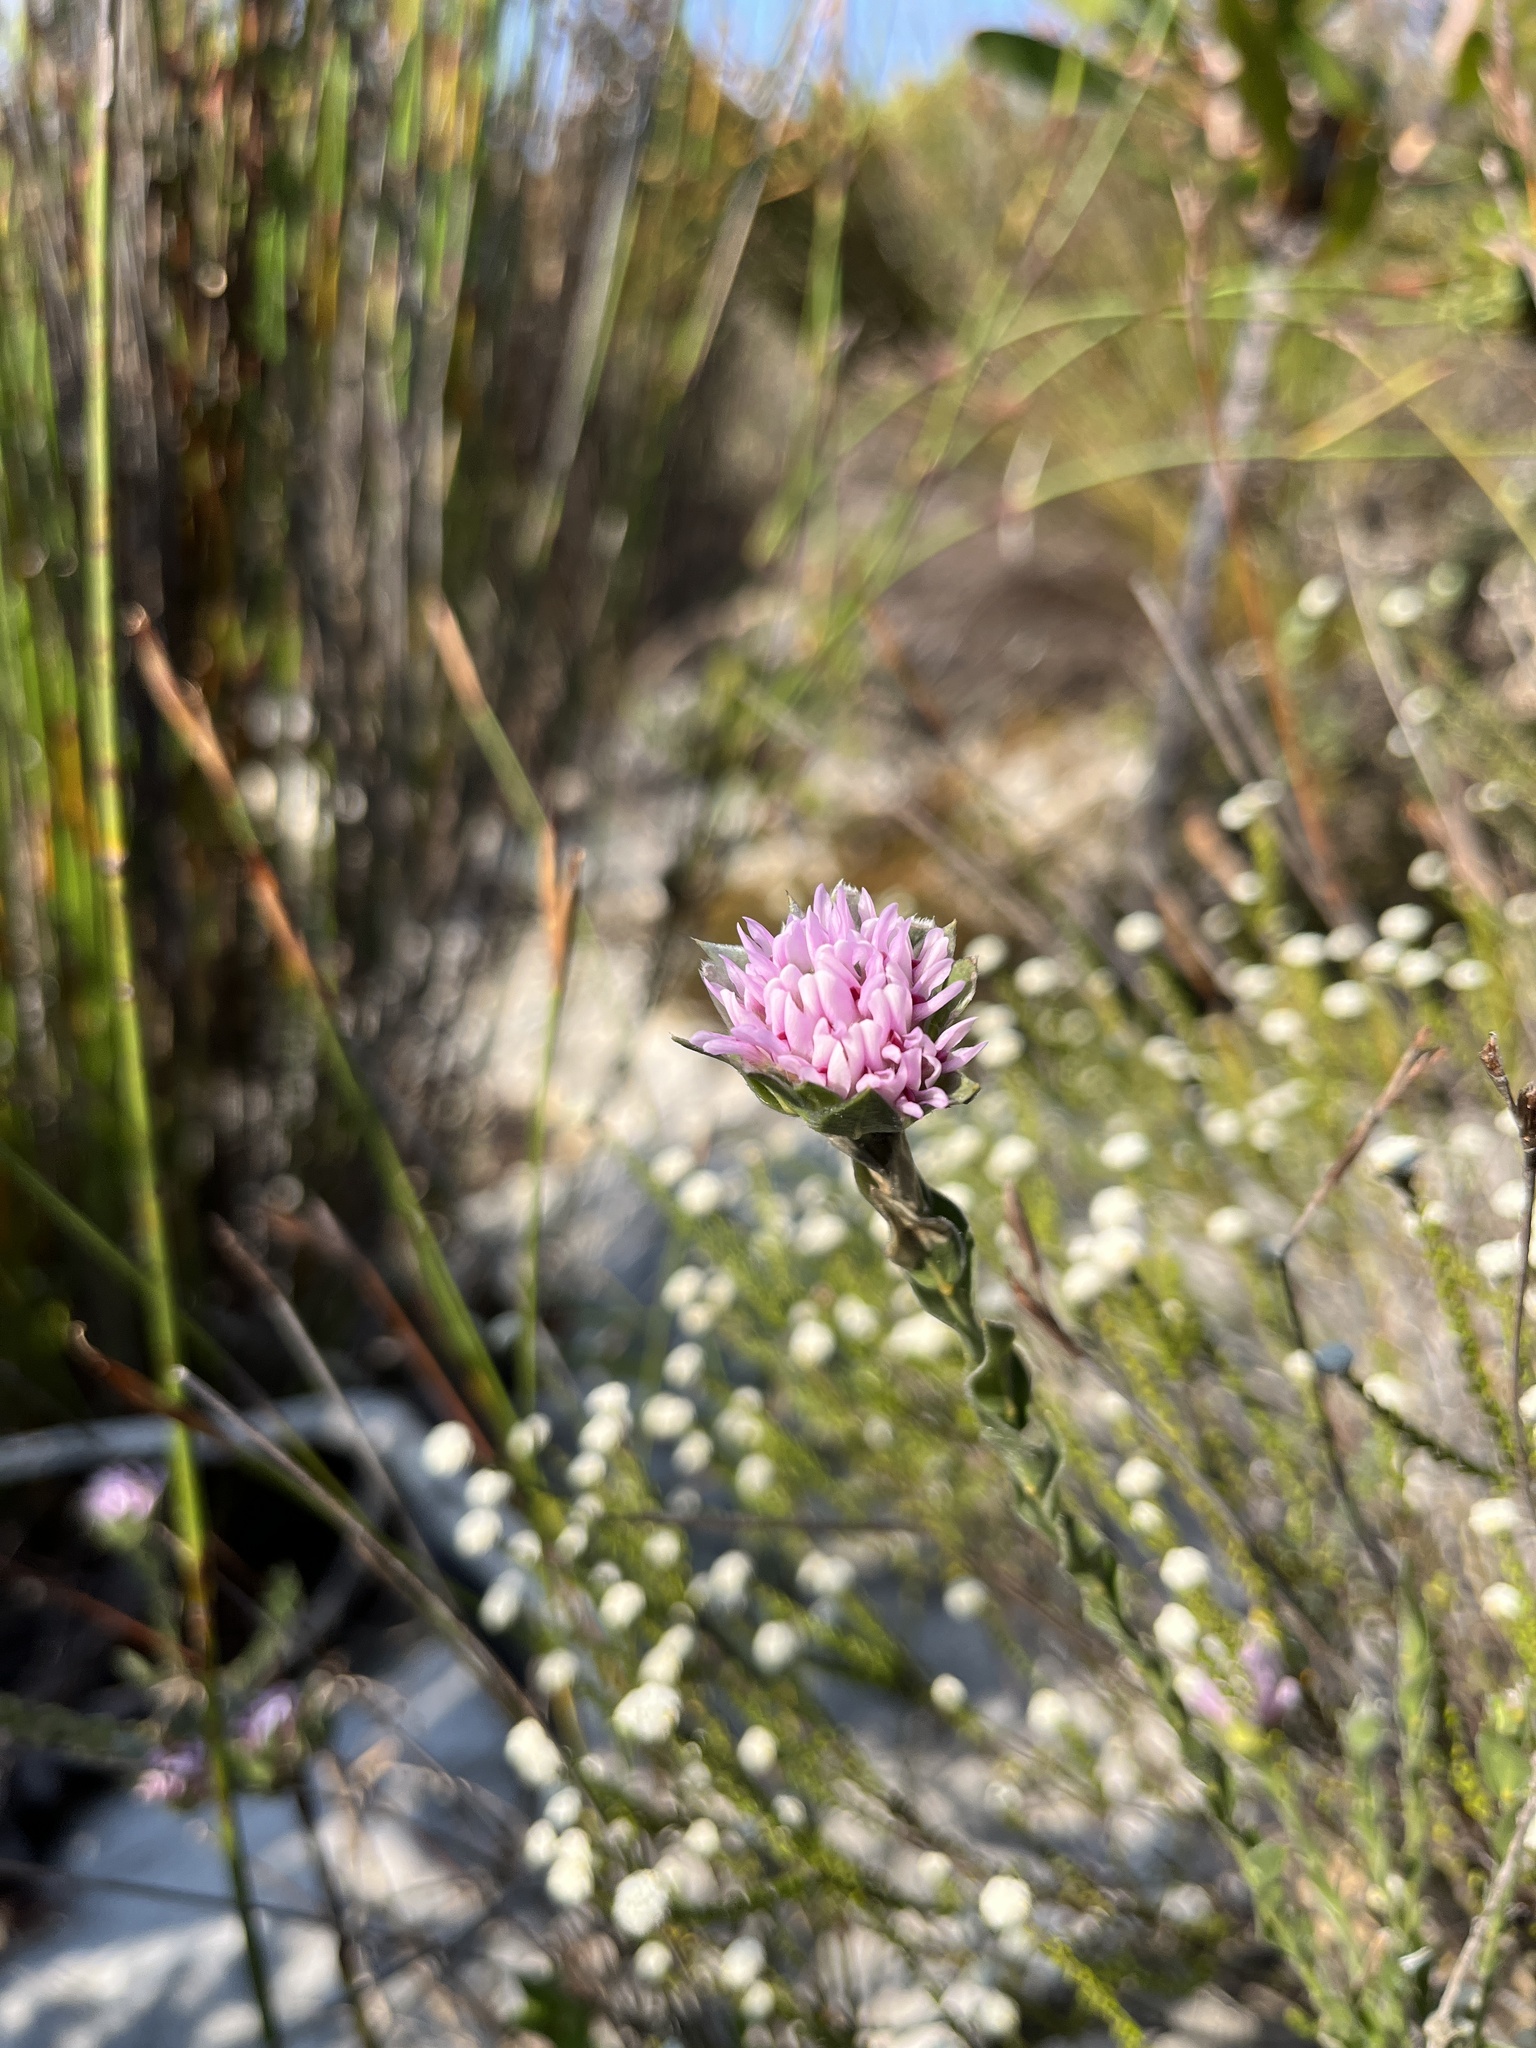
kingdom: Plantae
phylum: Tracheophyta
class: Magnoliopsida
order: Fabales
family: Fabaceae
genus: Amphithalea
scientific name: Amphithalea sericea
